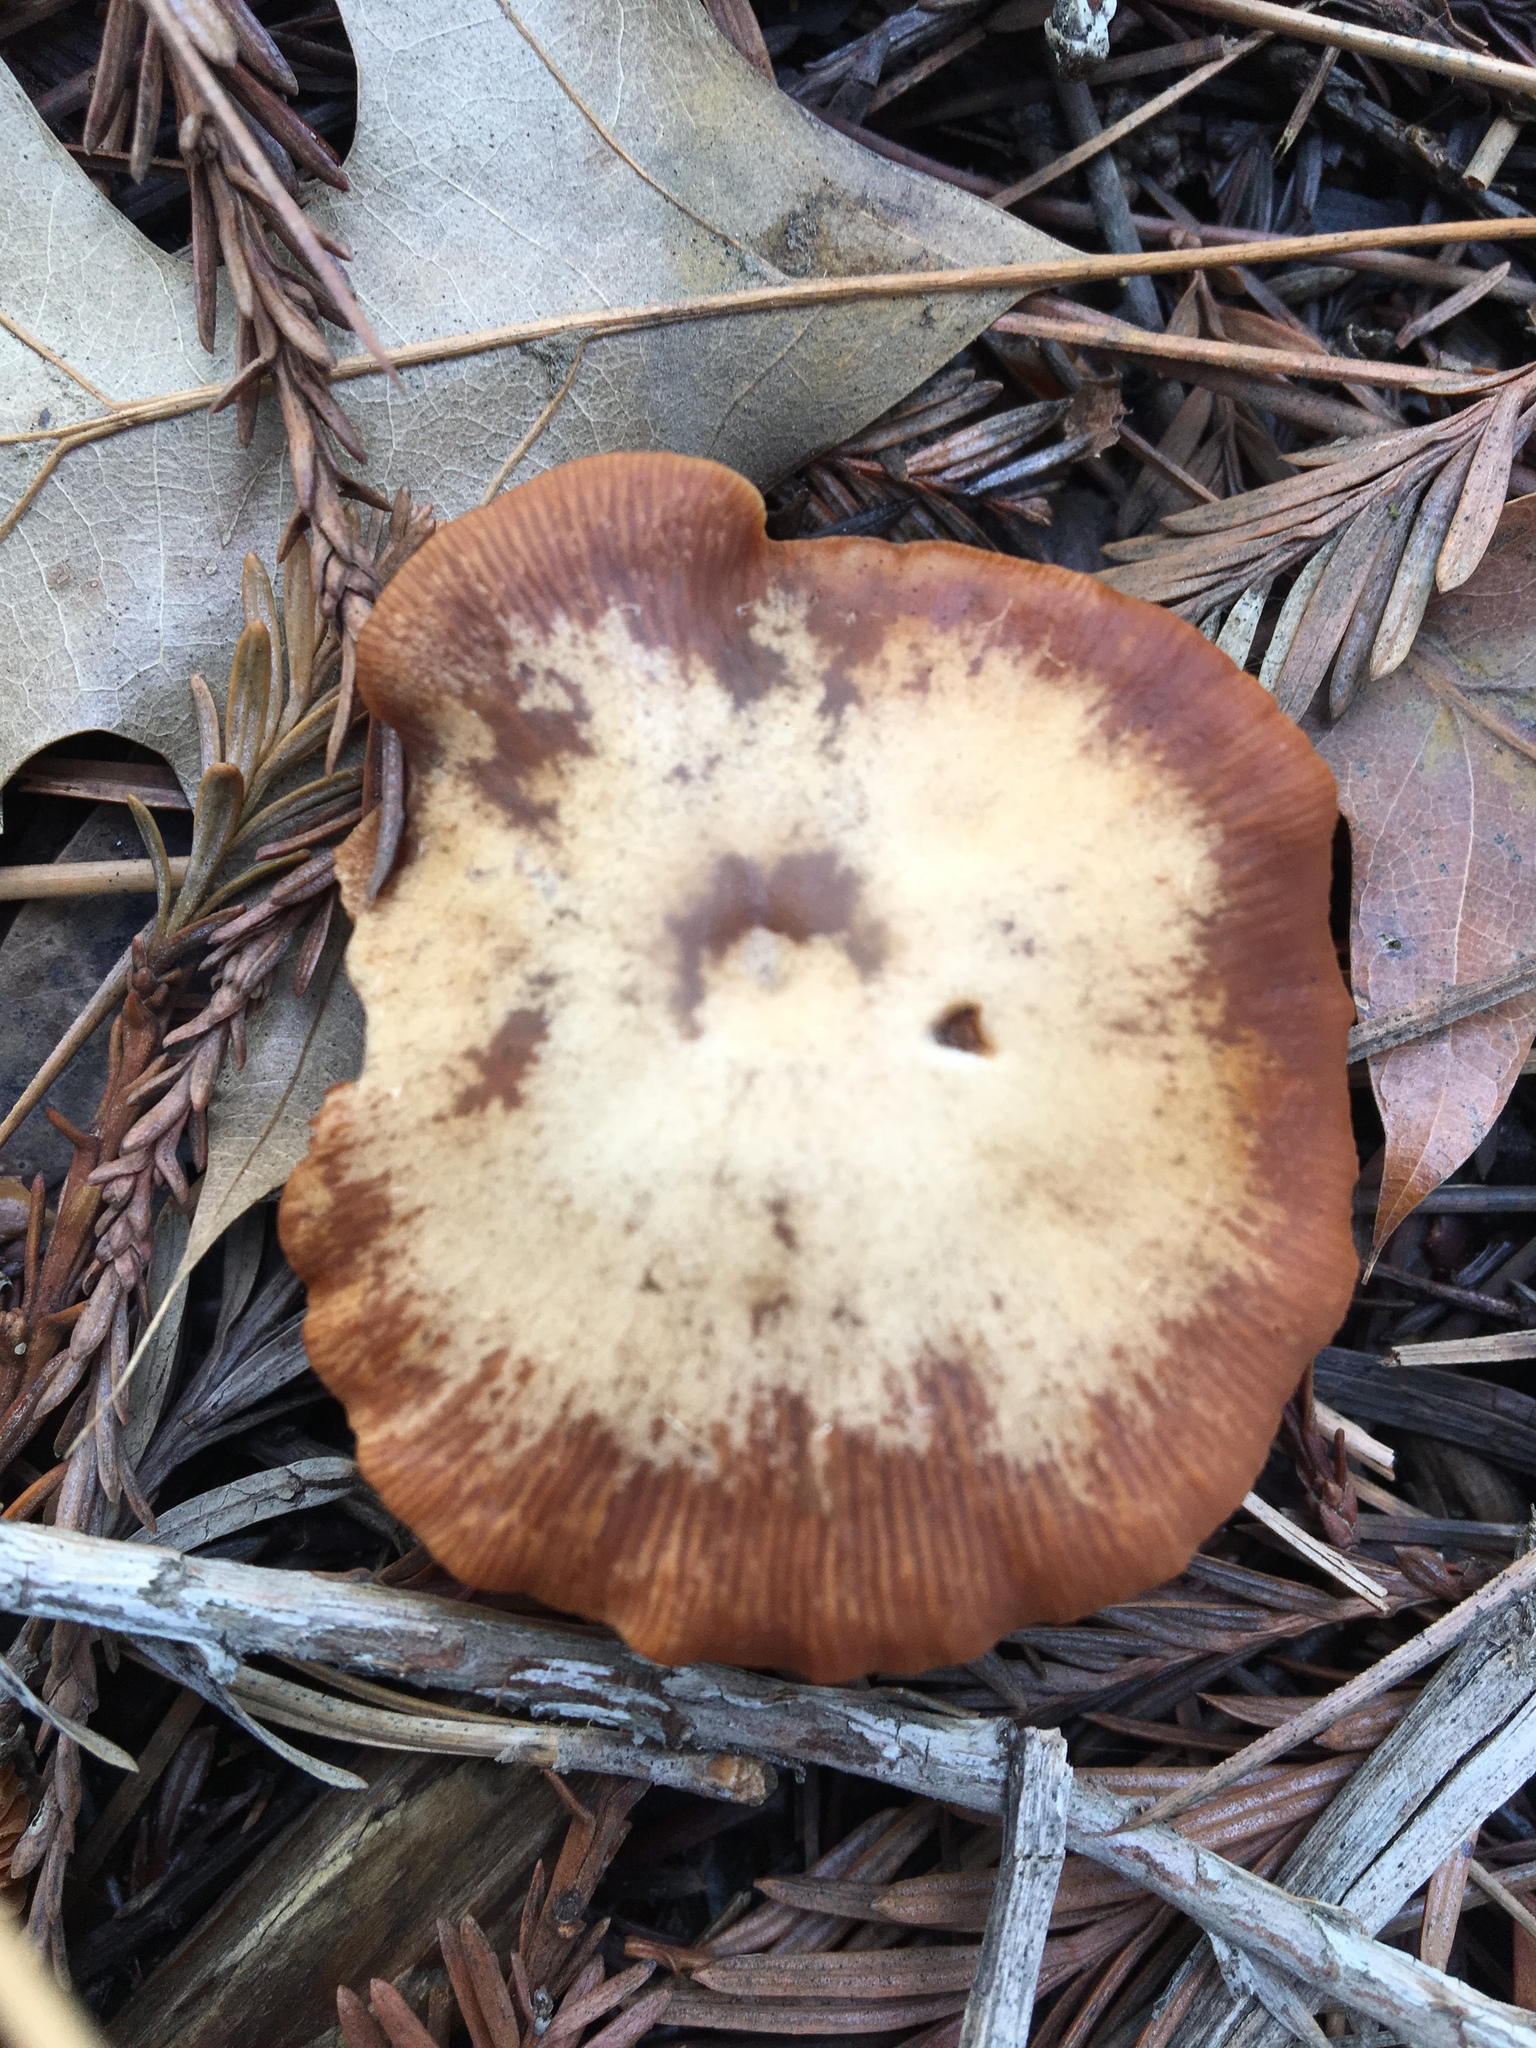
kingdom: Fungi
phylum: Basidiomycota
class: Agaricomycetes
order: Agaricales
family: Tubariaceae
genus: Tubaria
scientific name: Tubaria furfuracea
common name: Scurfy twiglet
